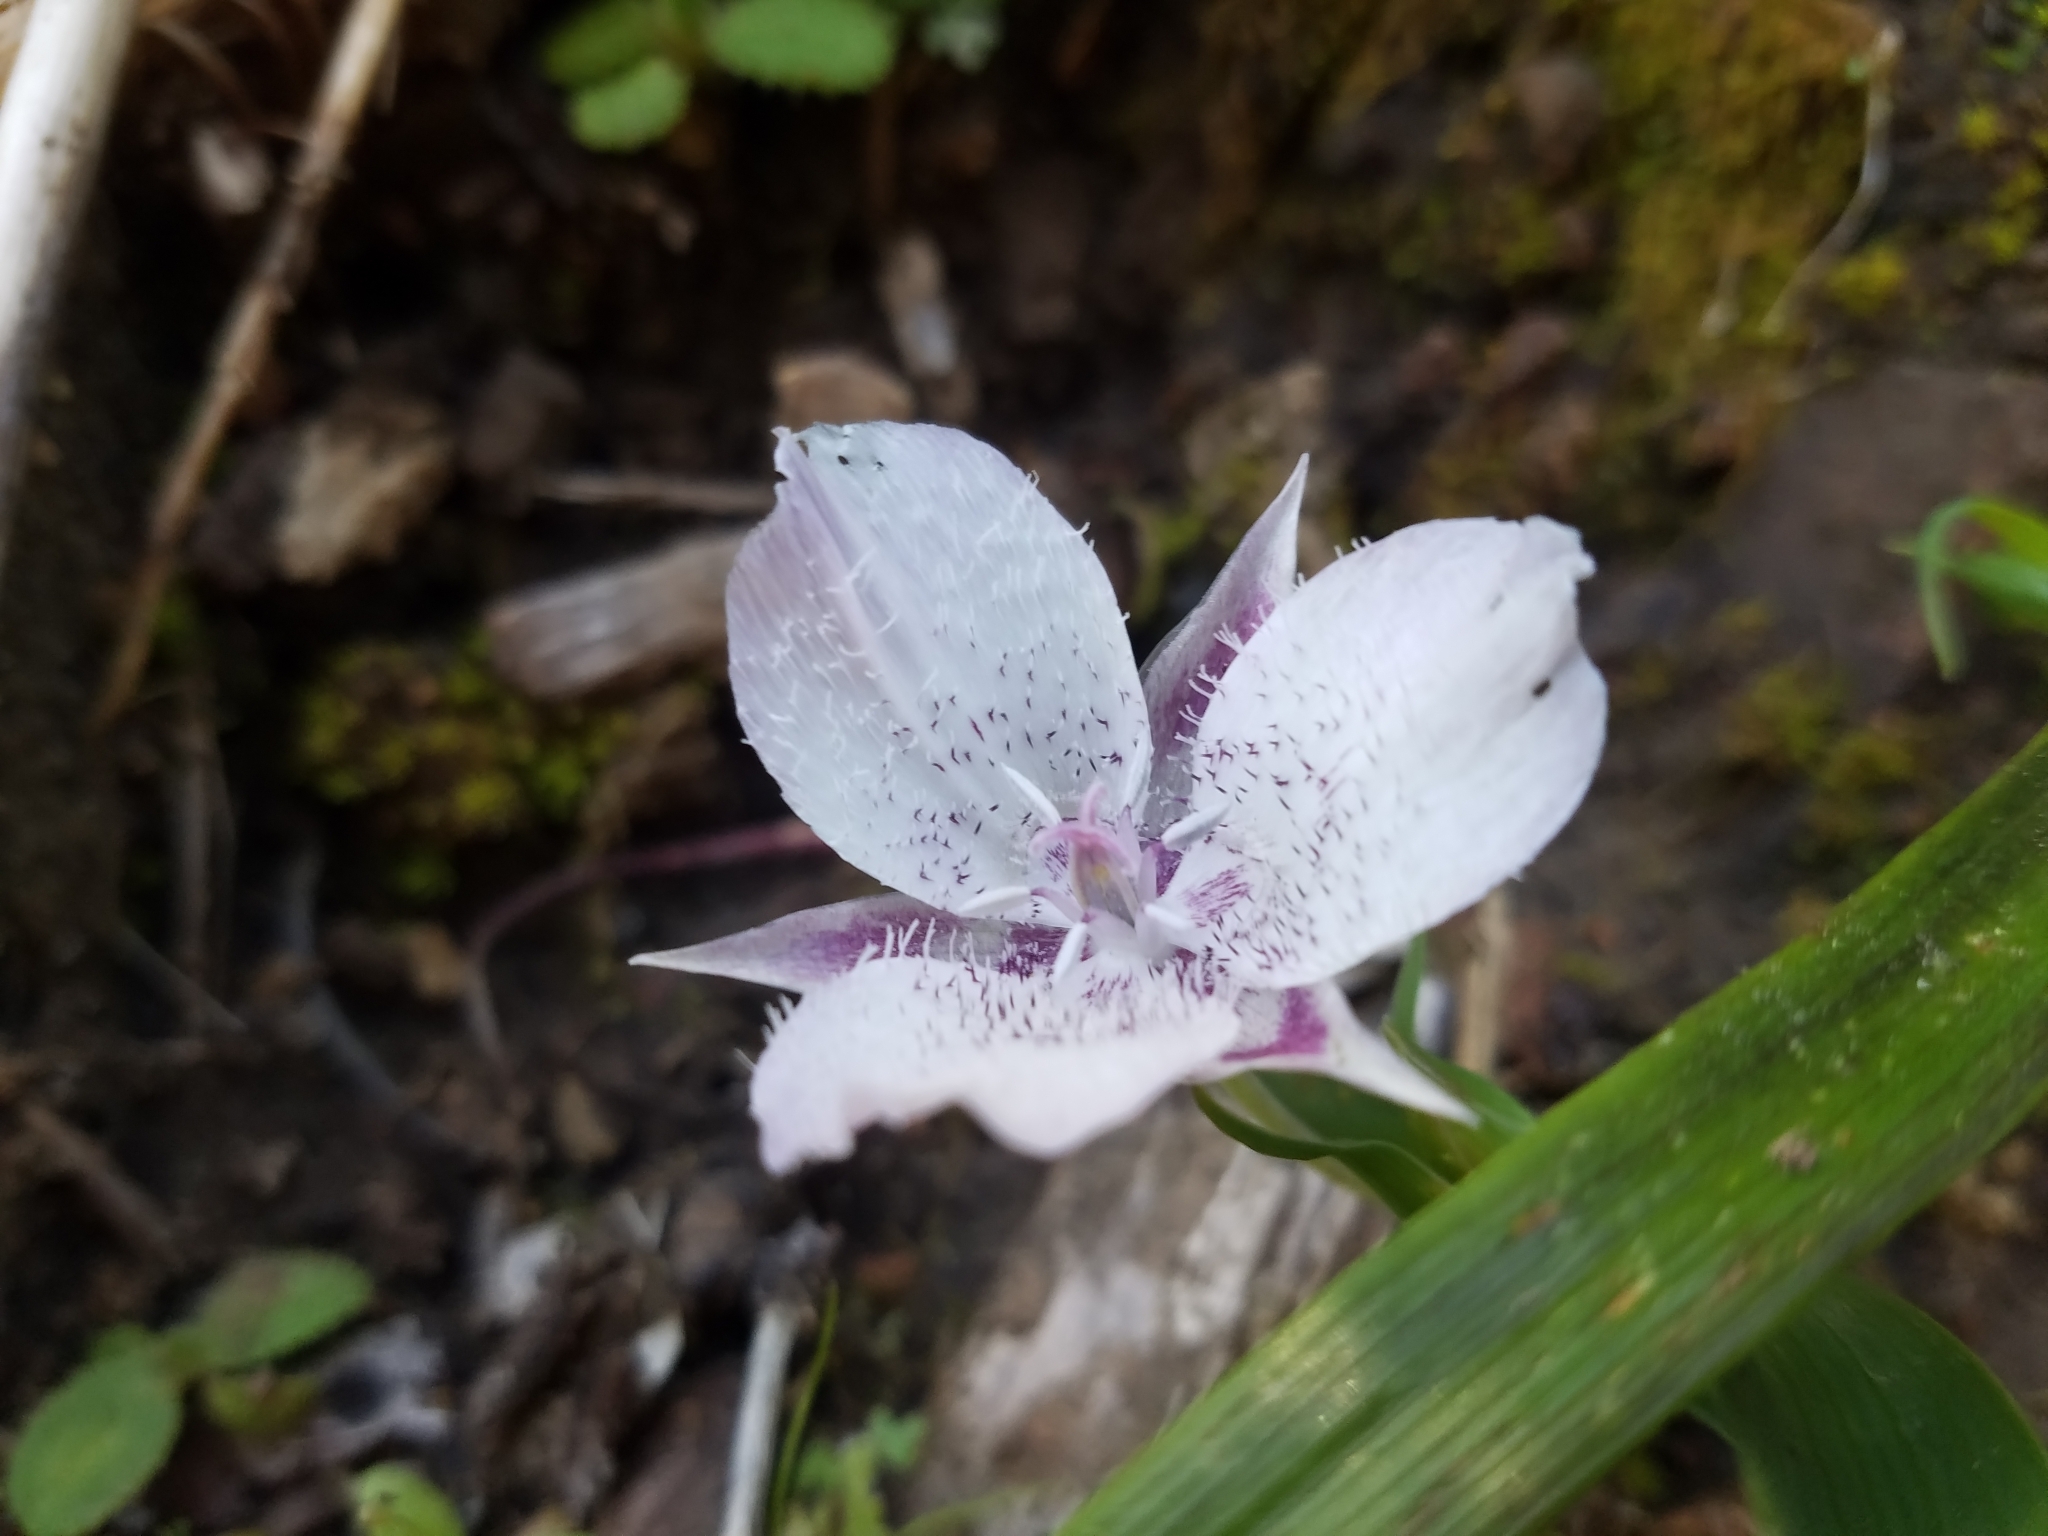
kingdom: Plantae
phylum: Tracheophyta
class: Liliopsida
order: Liliales
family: Liliaceae
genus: Calochortus
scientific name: Calochortus tolmiei
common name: Pussy-ears
